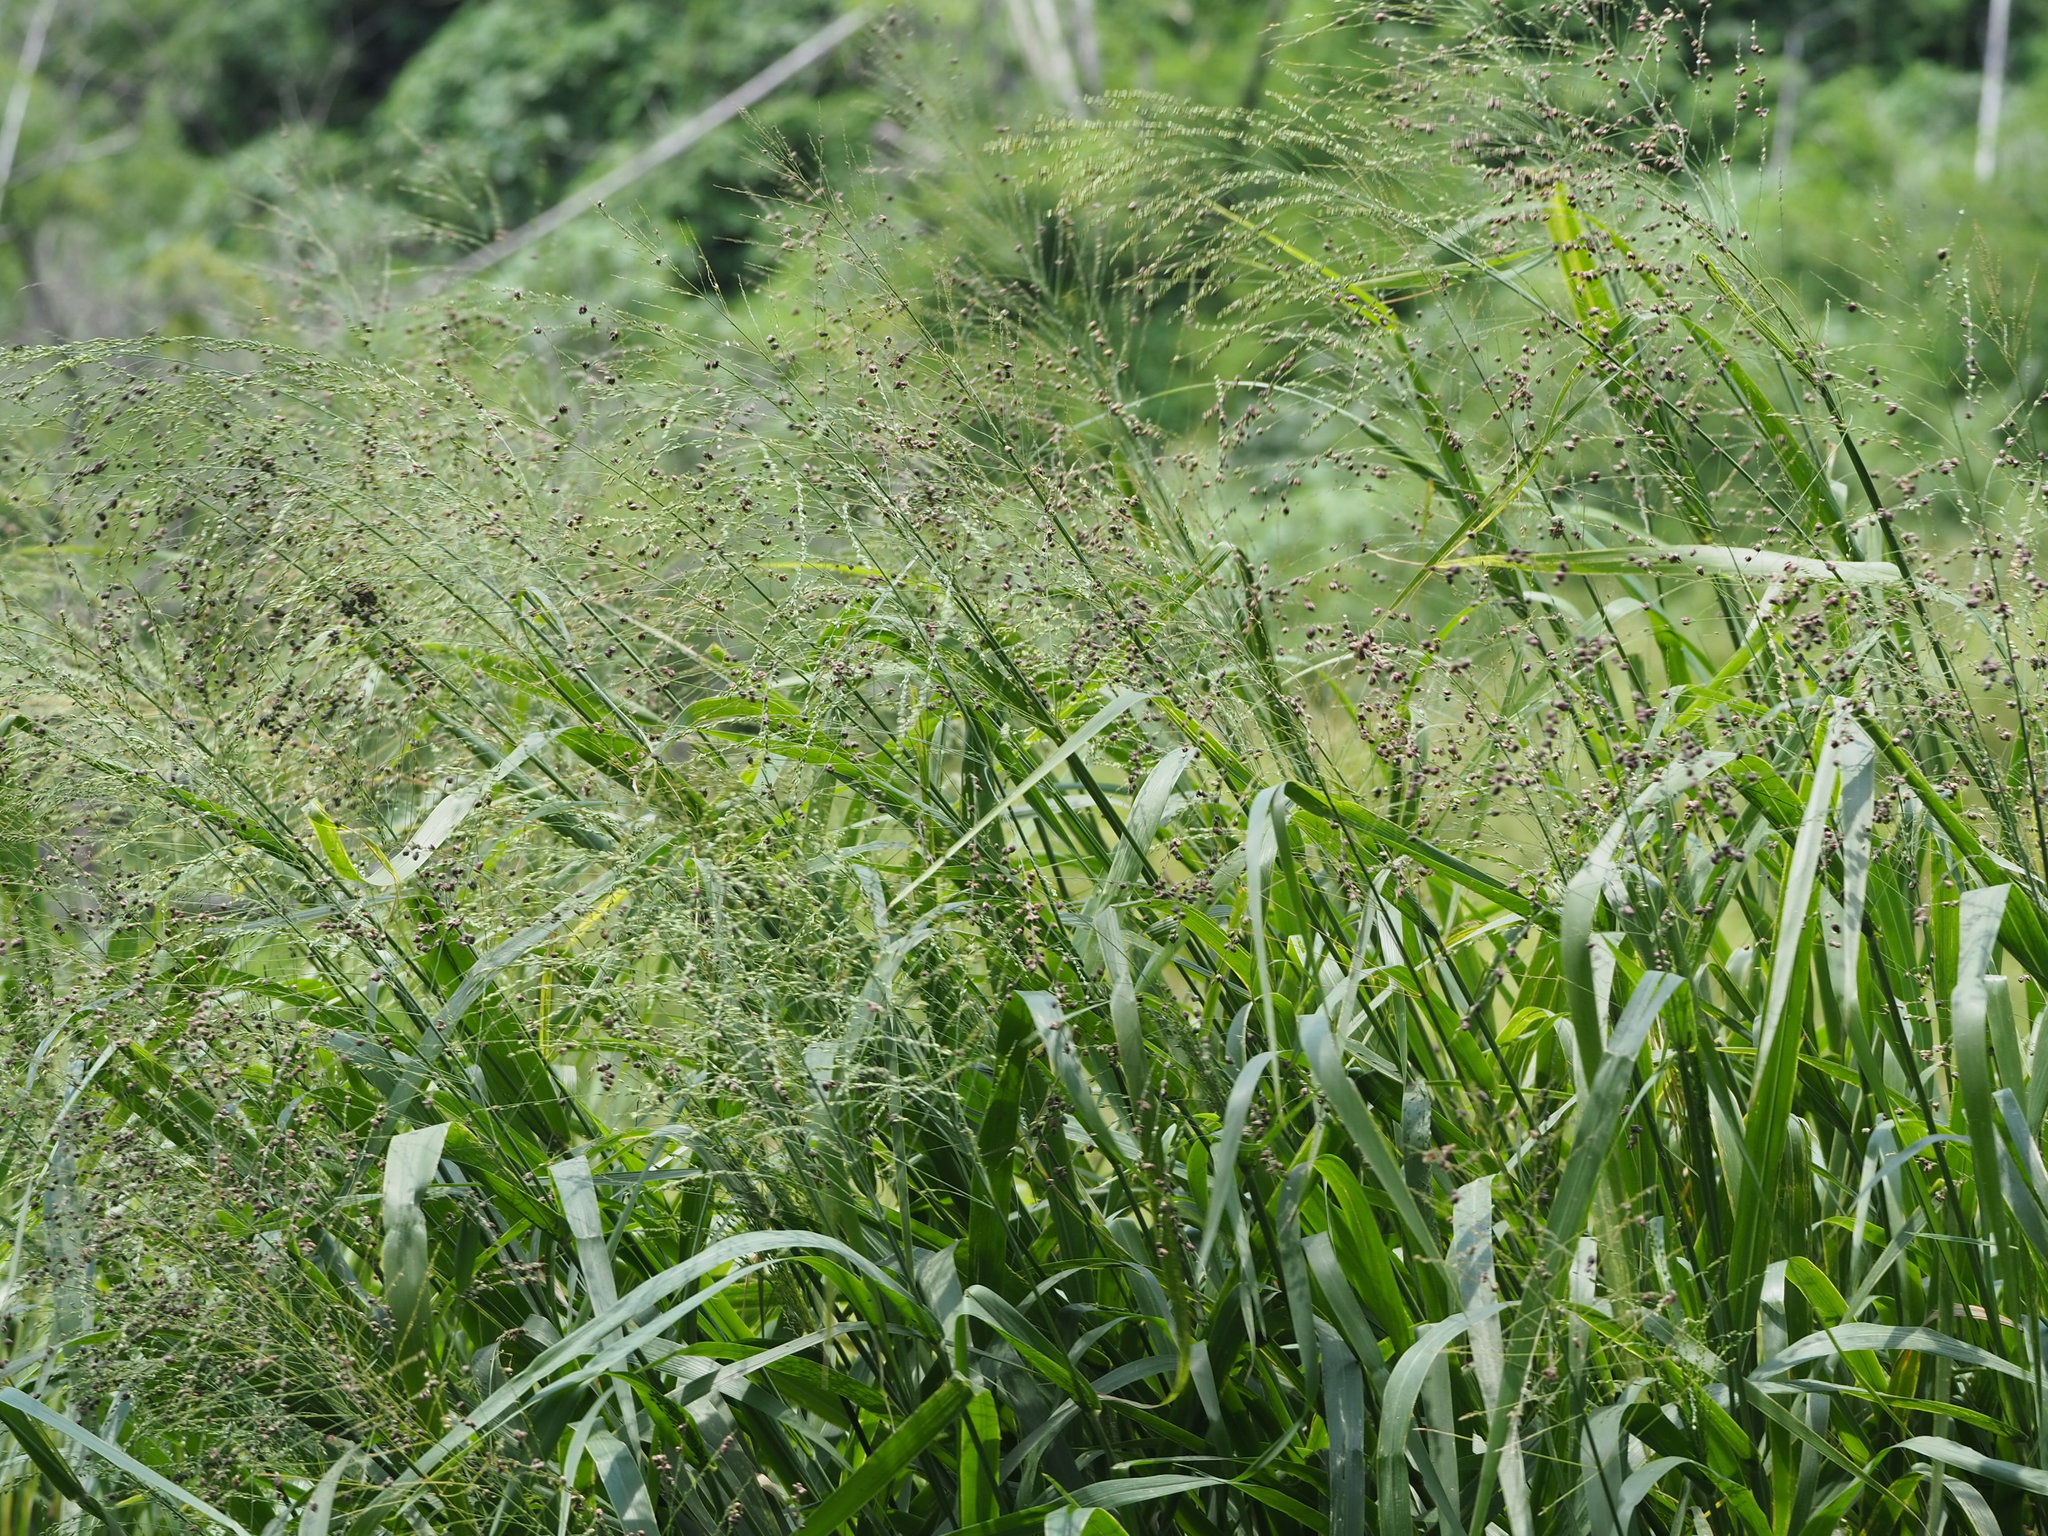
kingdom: Plantae
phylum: Tracheophyta
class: Liliopsida
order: Poales
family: Poaceae
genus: Megathyrsus
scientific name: Megathyrsus maximus
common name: Guineagrass
